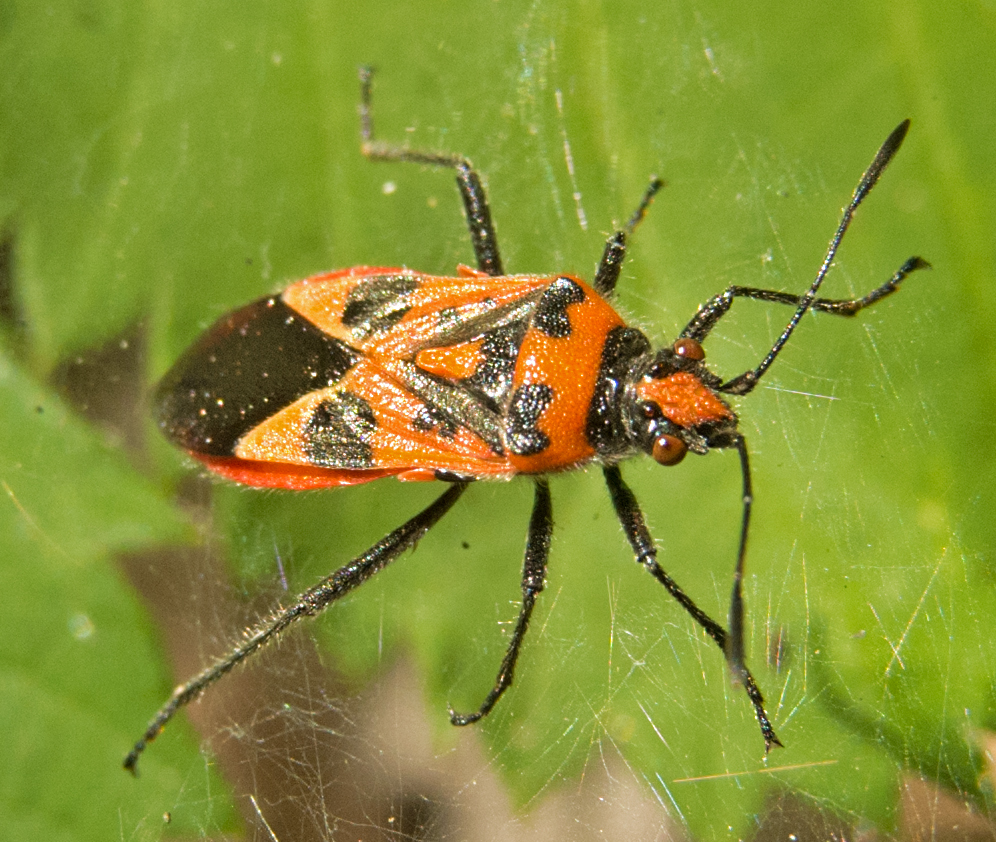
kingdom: Animalia
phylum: Arthropoda
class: Insecta
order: Hemiptera
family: Rhopalidae
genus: Corizus
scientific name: Corizus hyoscyami
